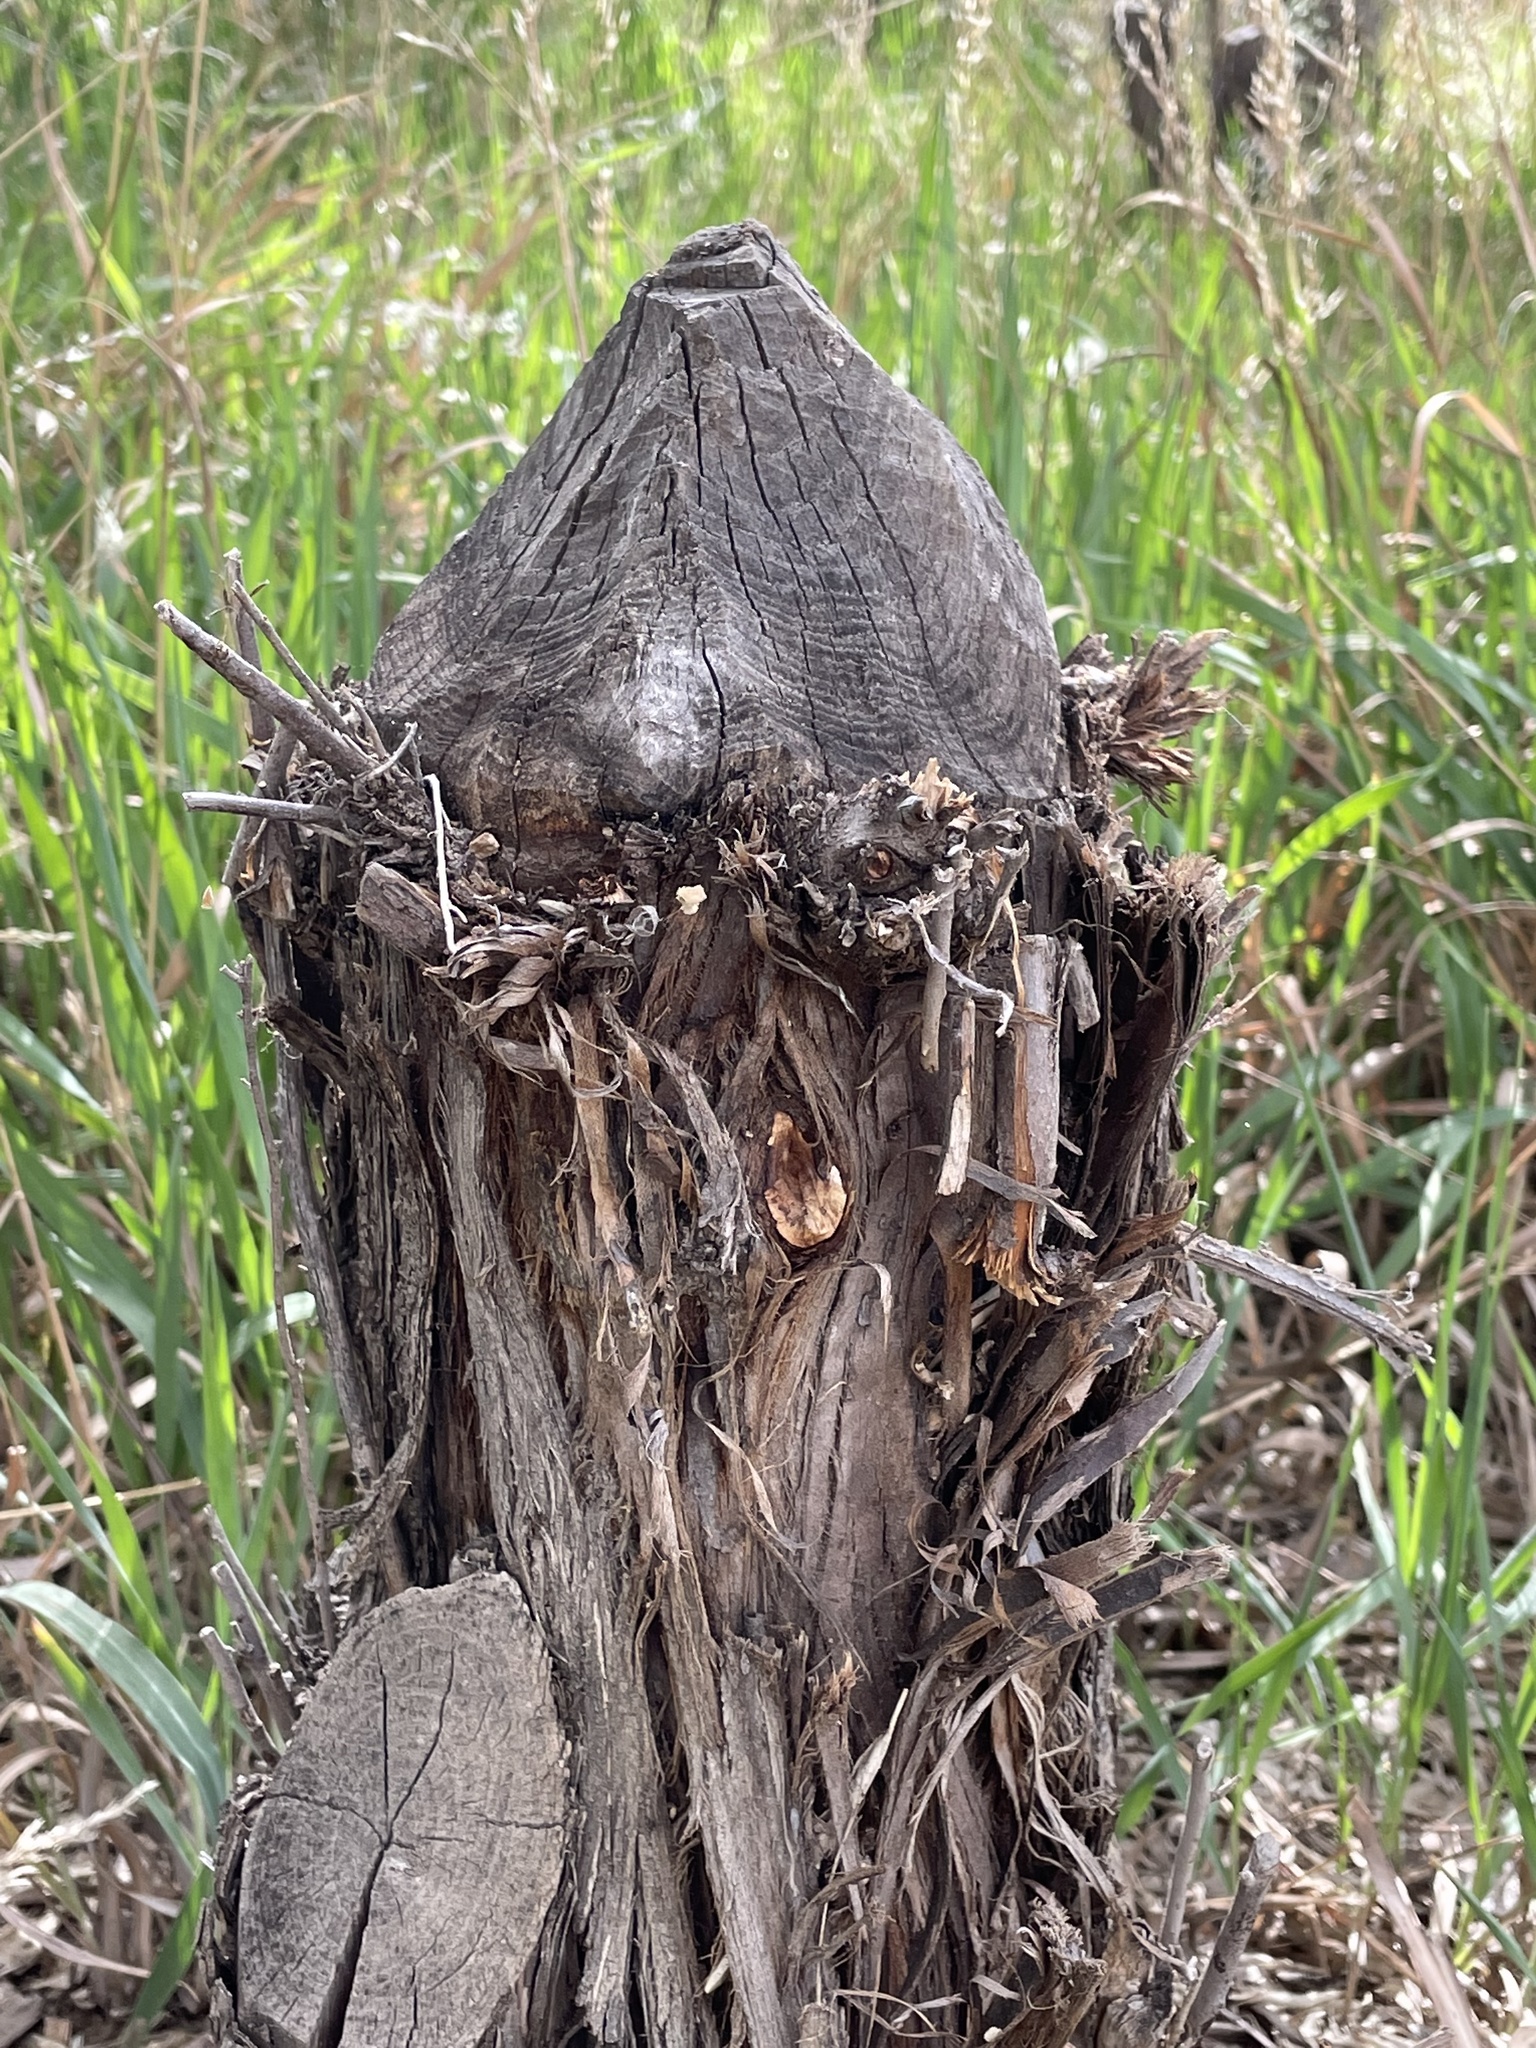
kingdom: Animalia
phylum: Chordata
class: Mammalia
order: Rodentia
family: Castoridae
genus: Castor
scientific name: Castor canadensis
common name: American beaver
